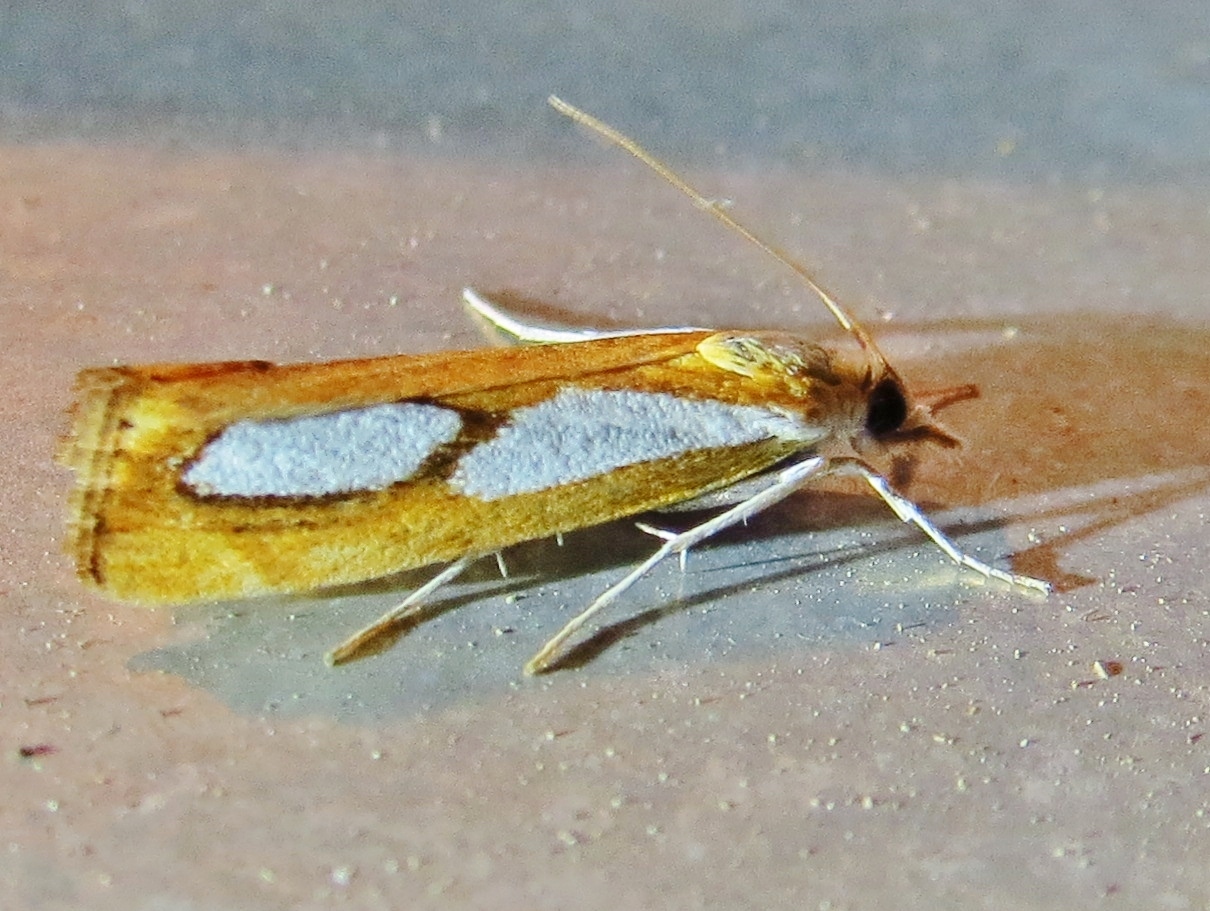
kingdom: Animalia
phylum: Arthropoda
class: Insecta
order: Lepidoptera
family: Crambidae
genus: Catoptria
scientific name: Catoptria pinella
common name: Pearl grass-veneer
